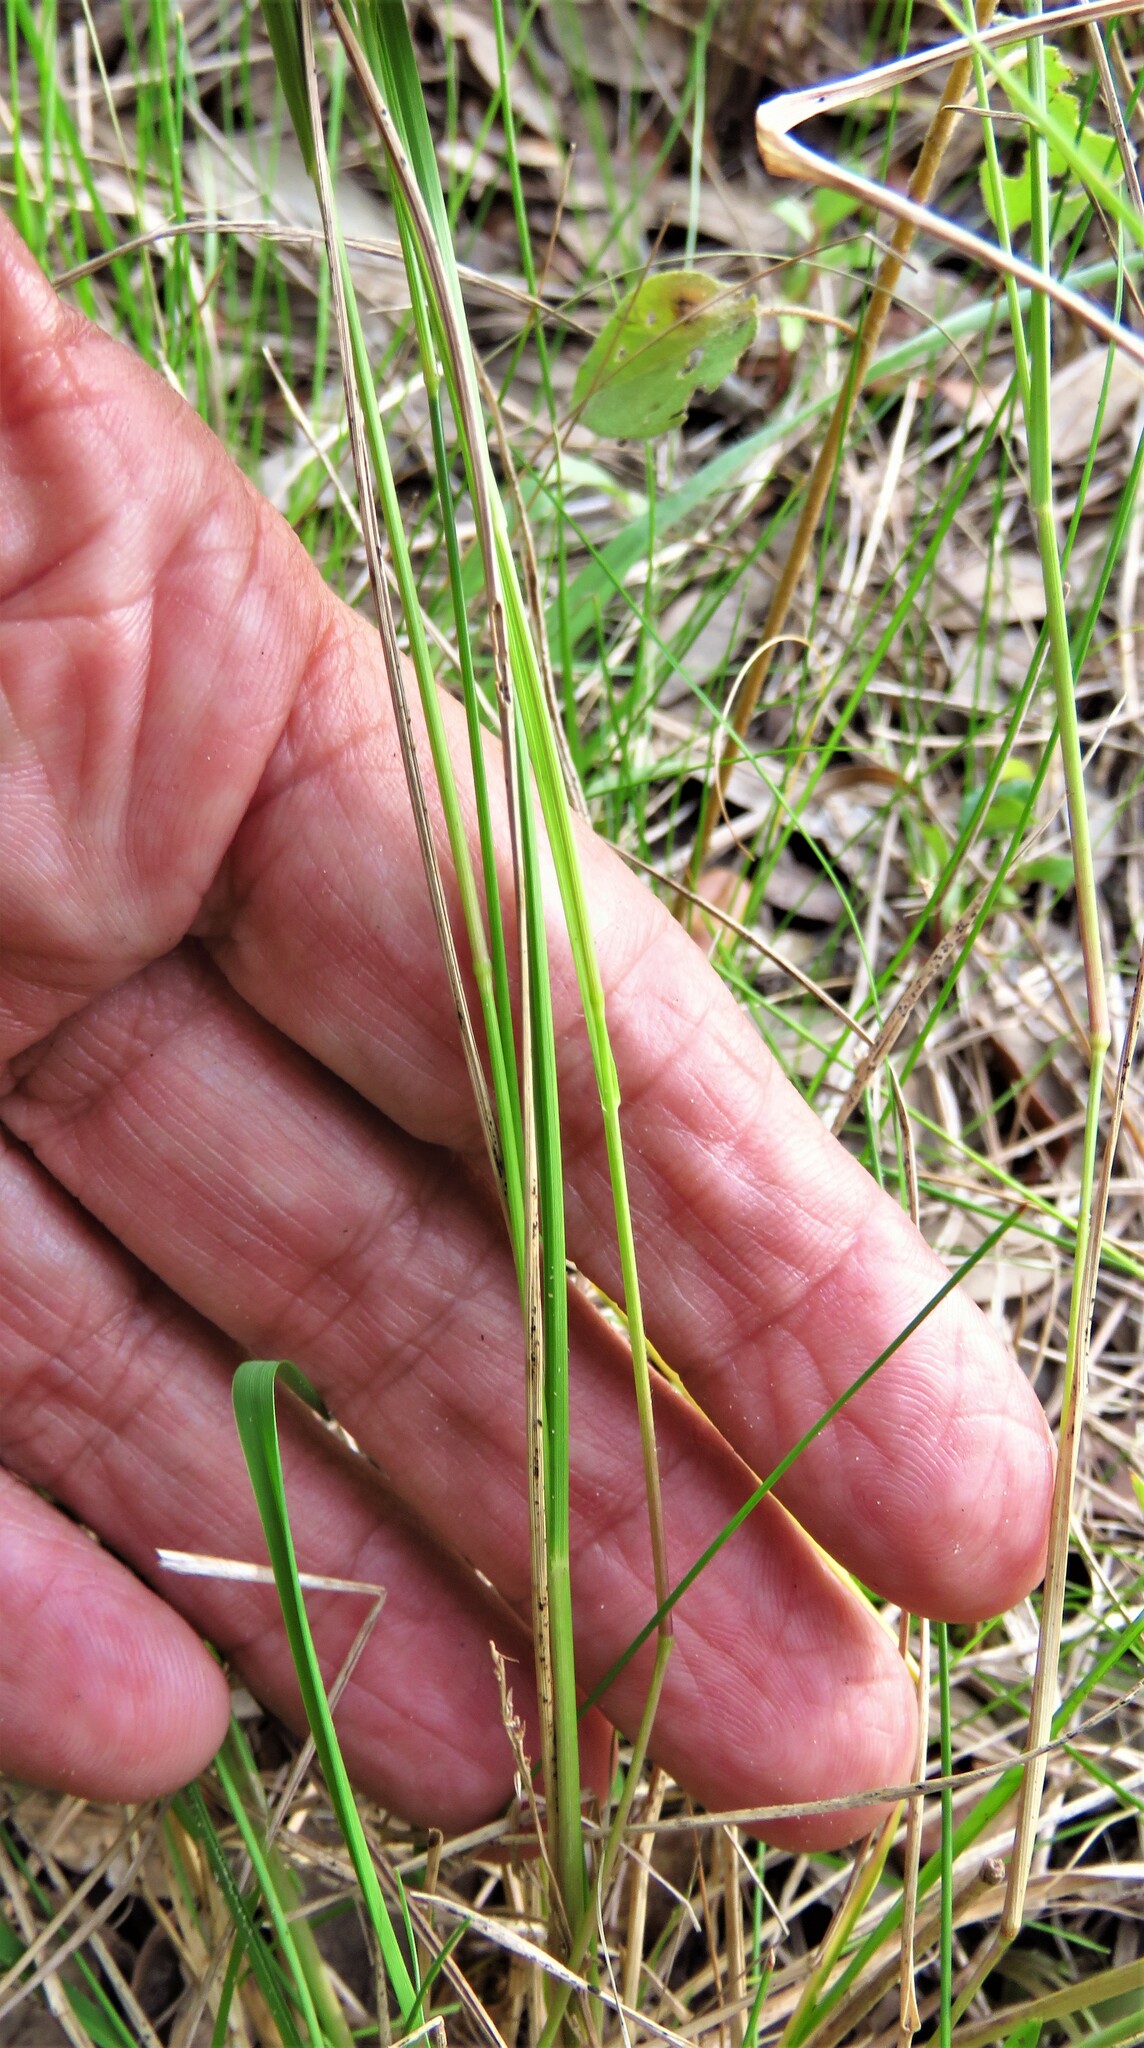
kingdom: Plantae
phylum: Tracheophyta
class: Liliopsida
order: Poales
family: Poaceae
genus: Steinchisma
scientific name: Steinchisma hians
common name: Gaping panic grass
